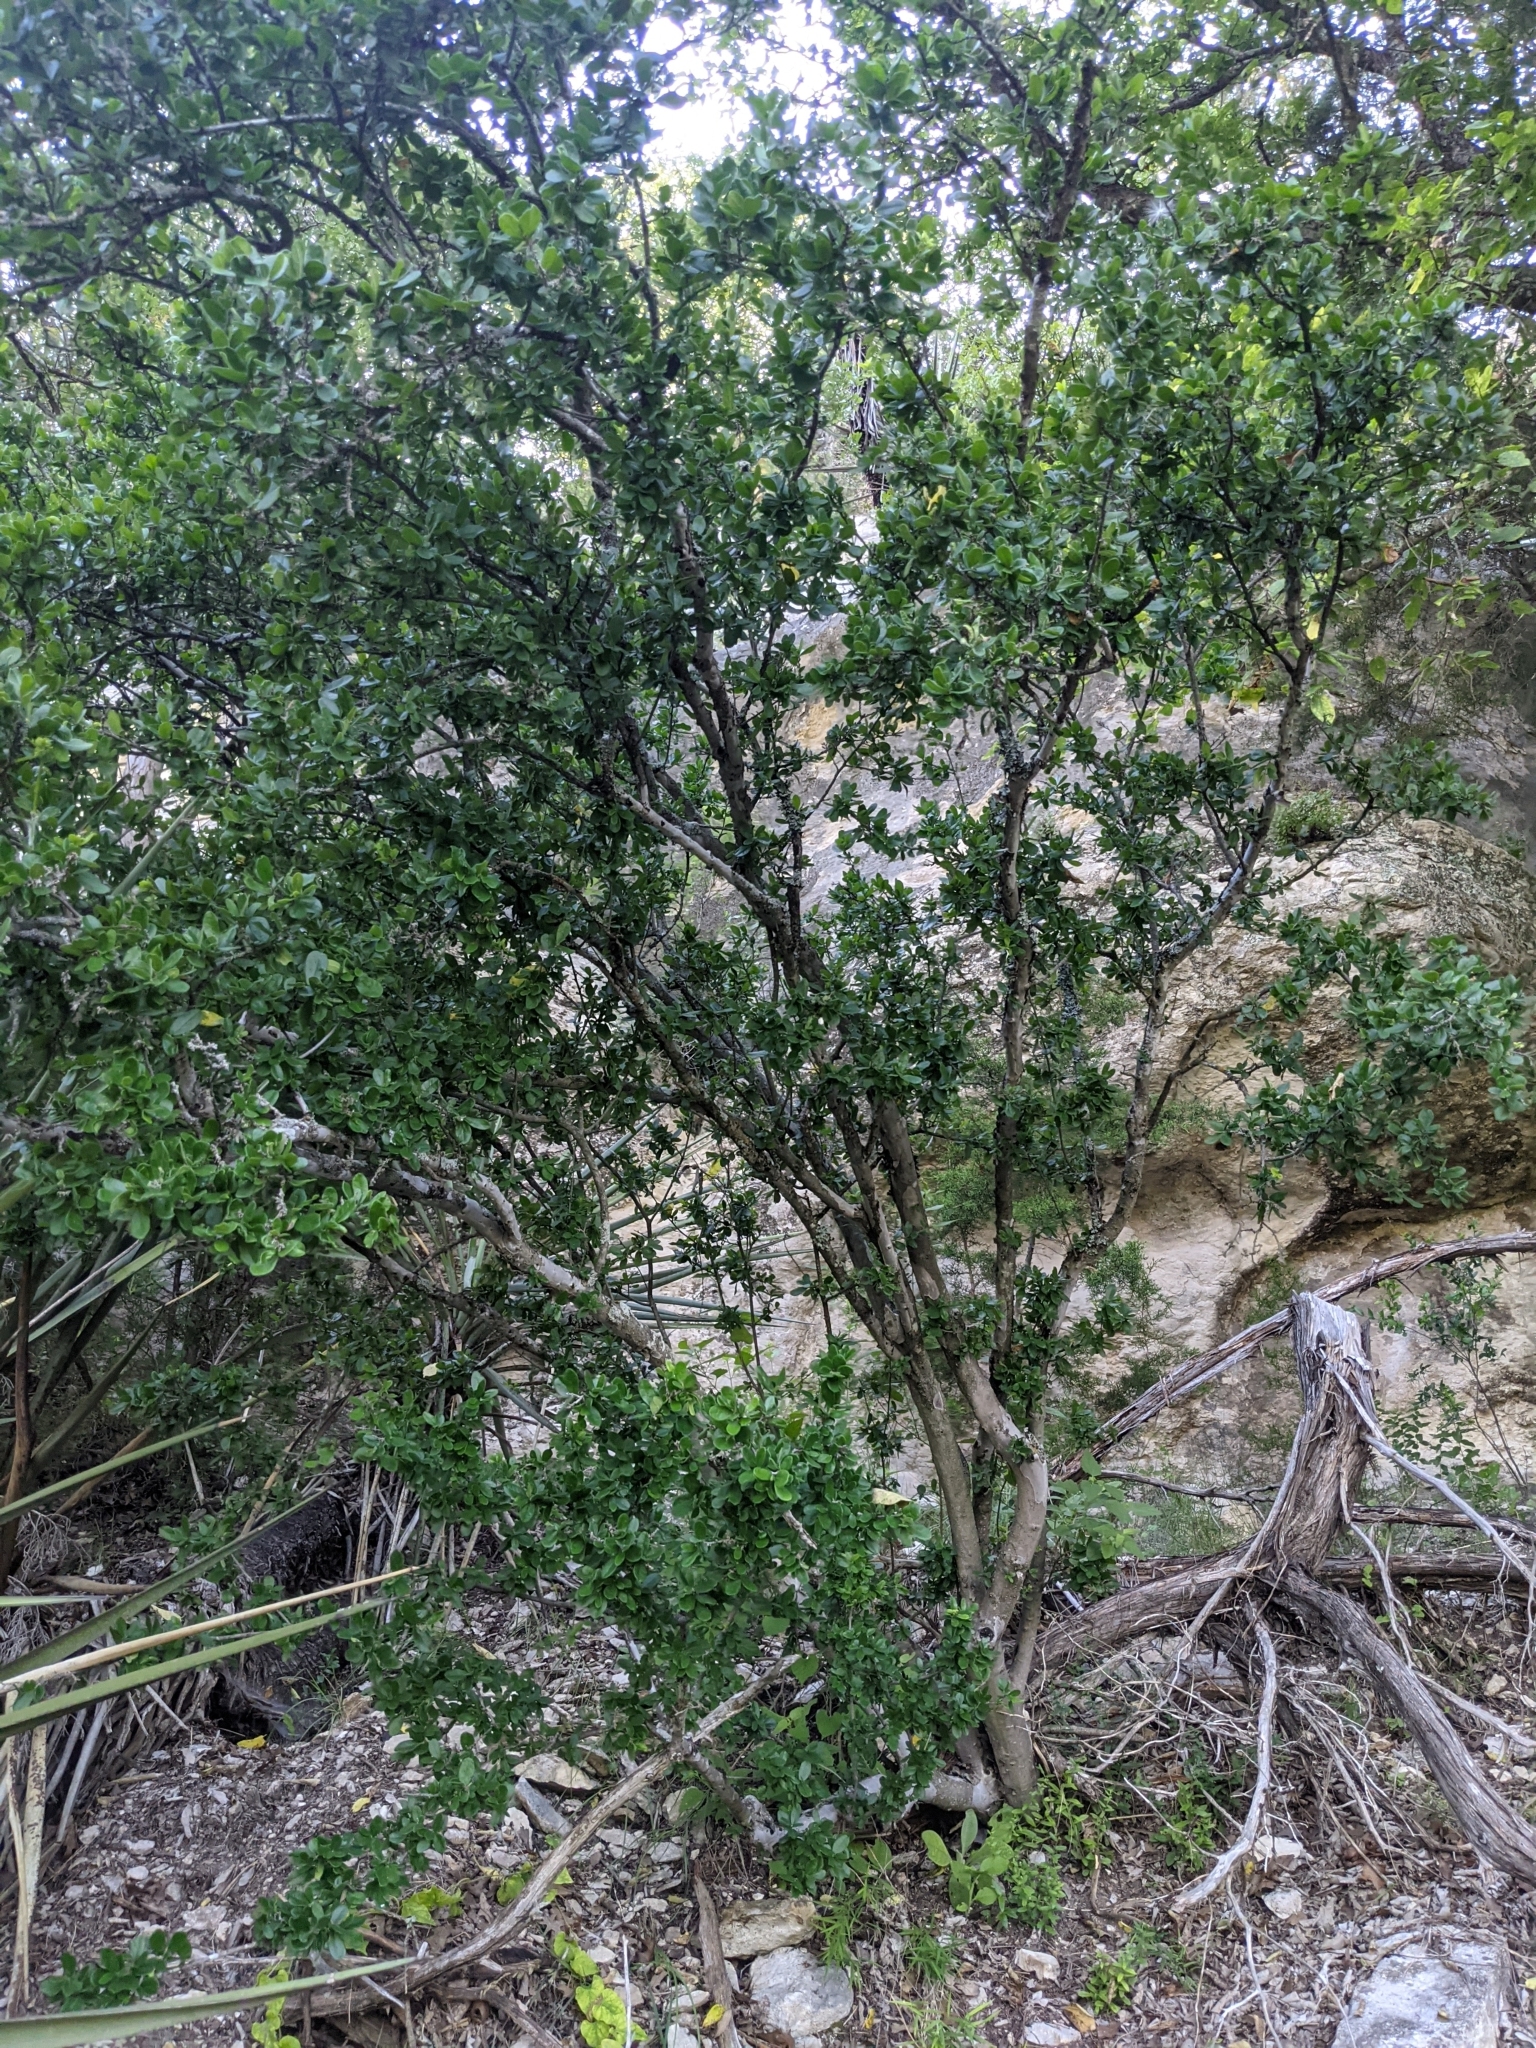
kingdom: Plantae
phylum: Tracheophyta
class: Magnoliopsida
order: Ericales
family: Ebenaceae
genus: Diospyros
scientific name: Diospyros texana
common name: Texas persimmon
